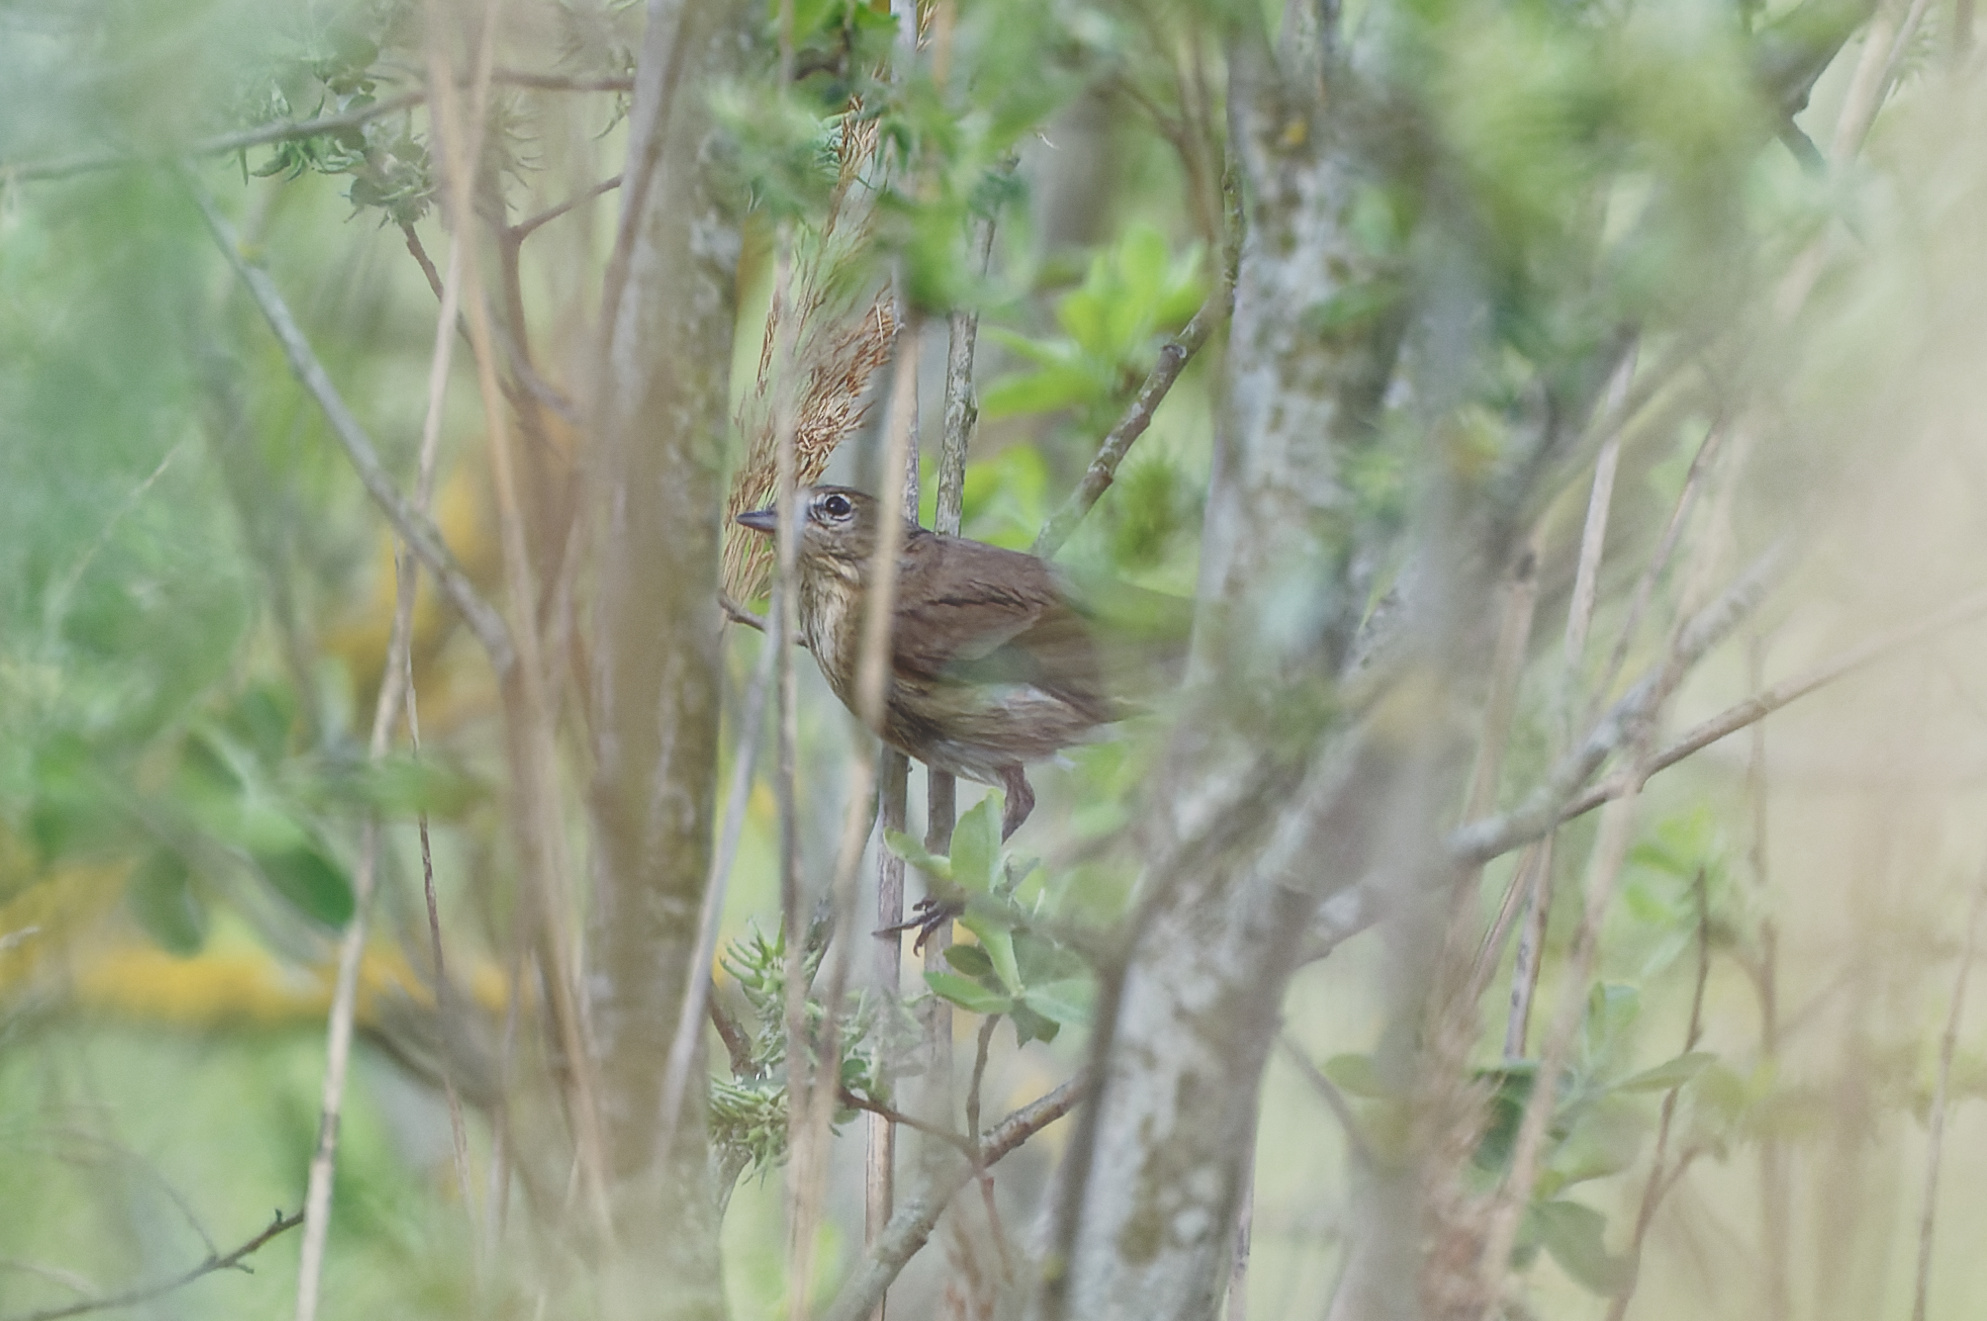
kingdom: Animalia
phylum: Chordata
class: Aves
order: Passeriformes
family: Sylviidae
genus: Sylvia
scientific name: Sylvia borin
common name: Garden warbler
